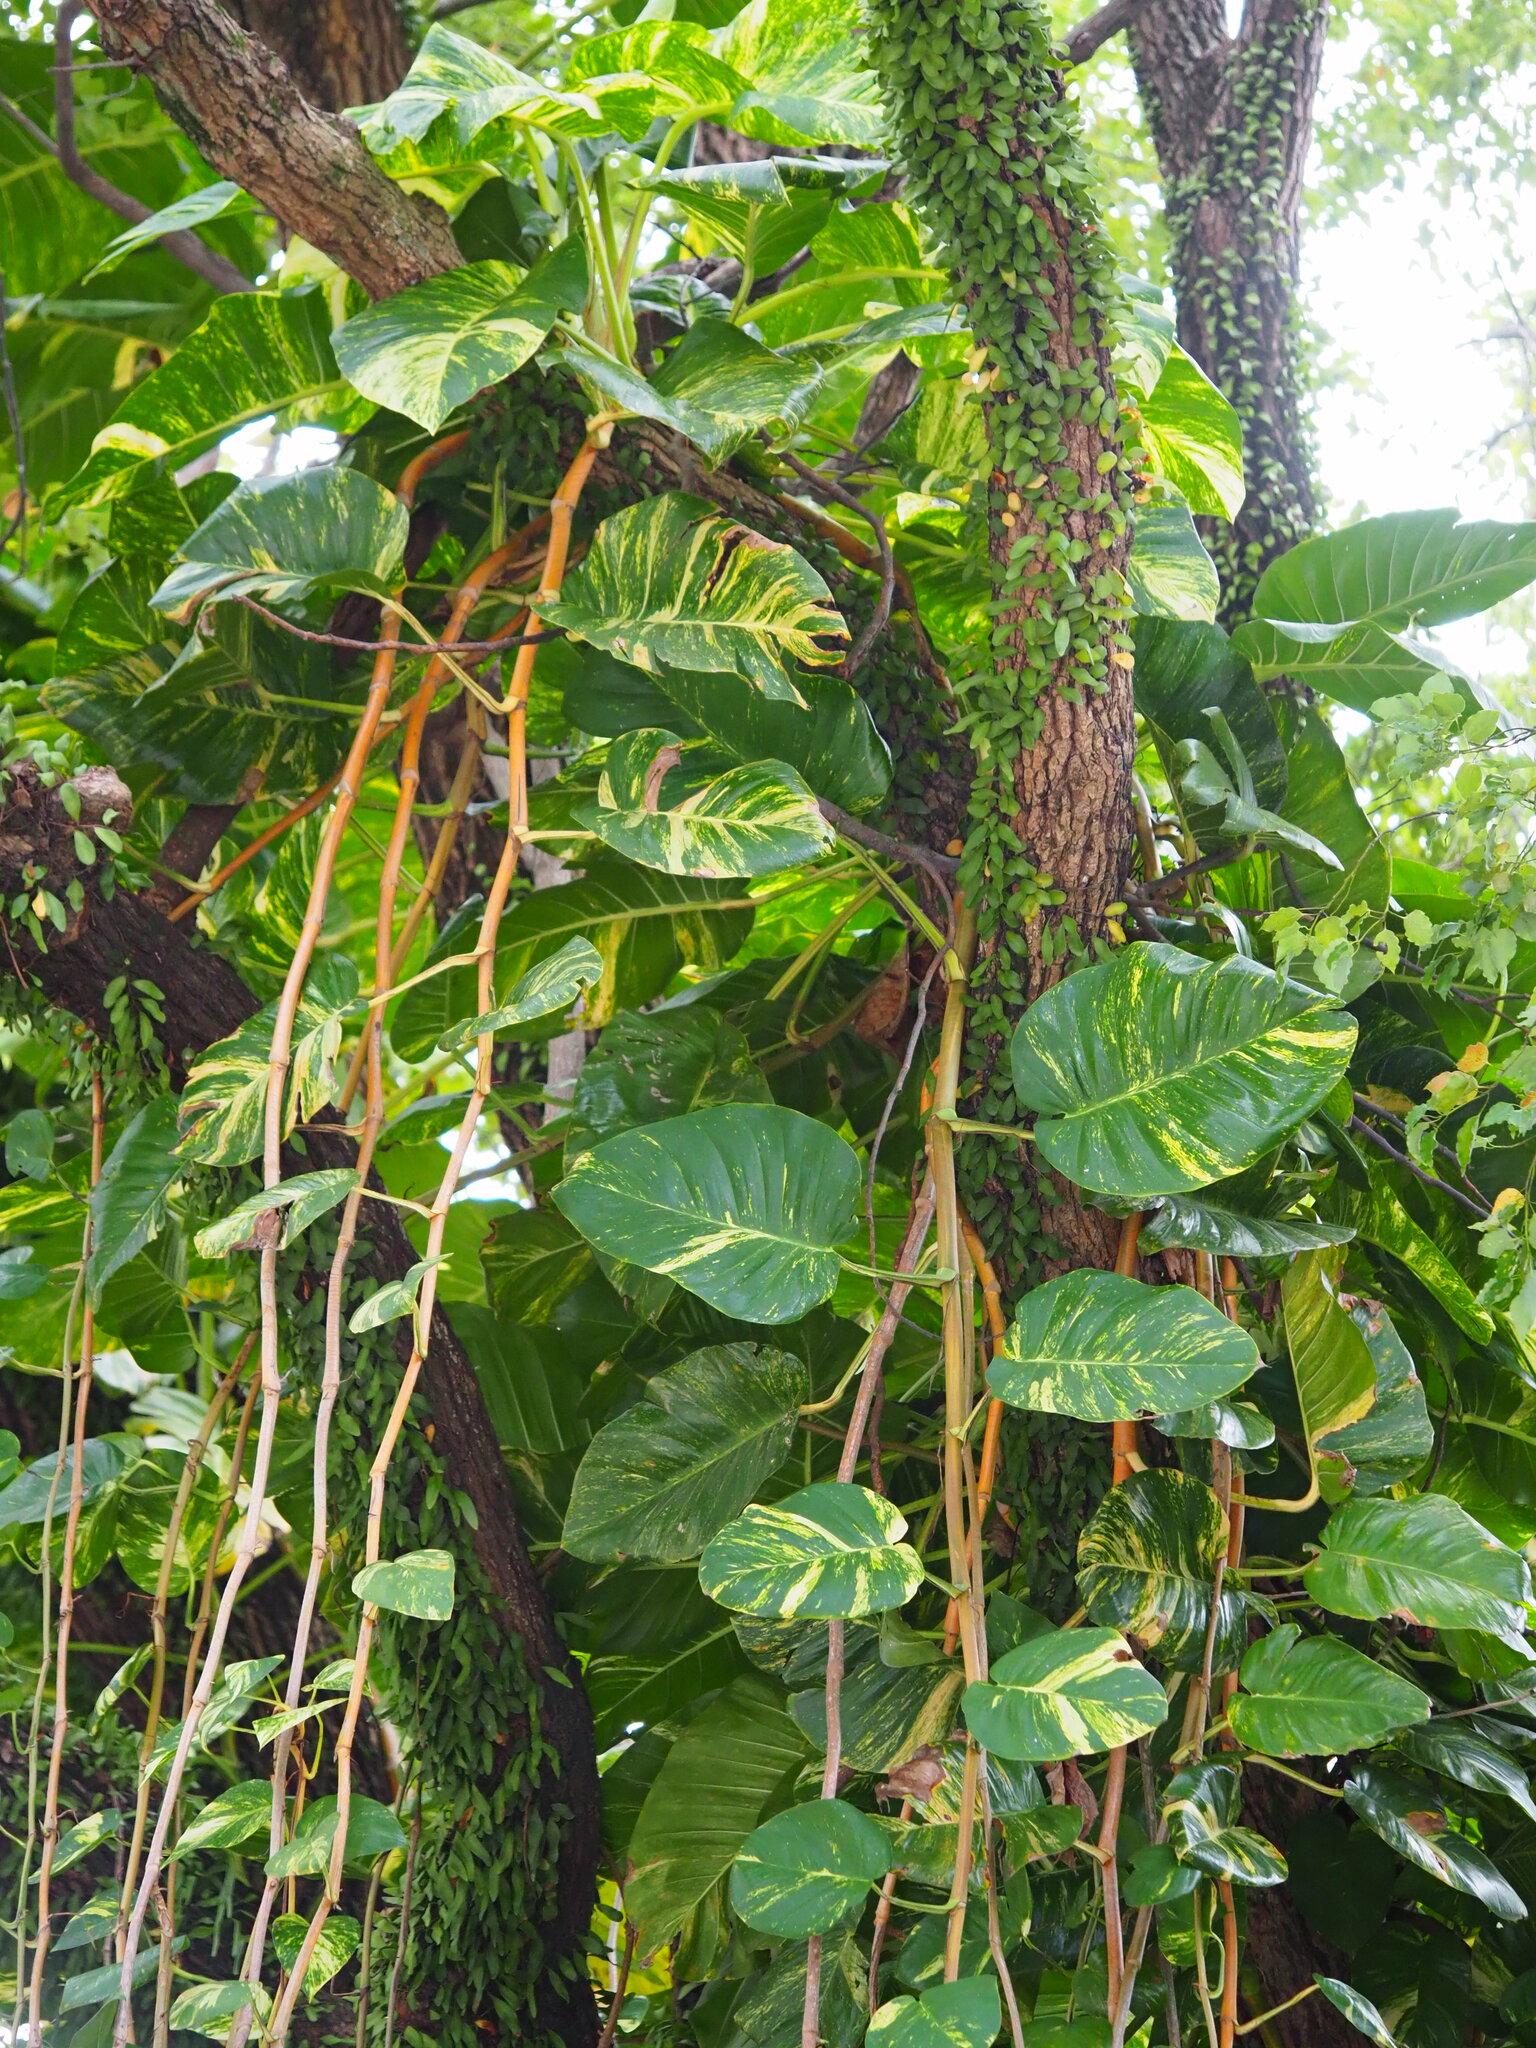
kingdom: Plantae
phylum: Tracheophyta
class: Liliopsida
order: Alismatales
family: Araceae
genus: Epipremnum
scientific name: Epipremnum aureum
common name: Golden hunter's-robe
